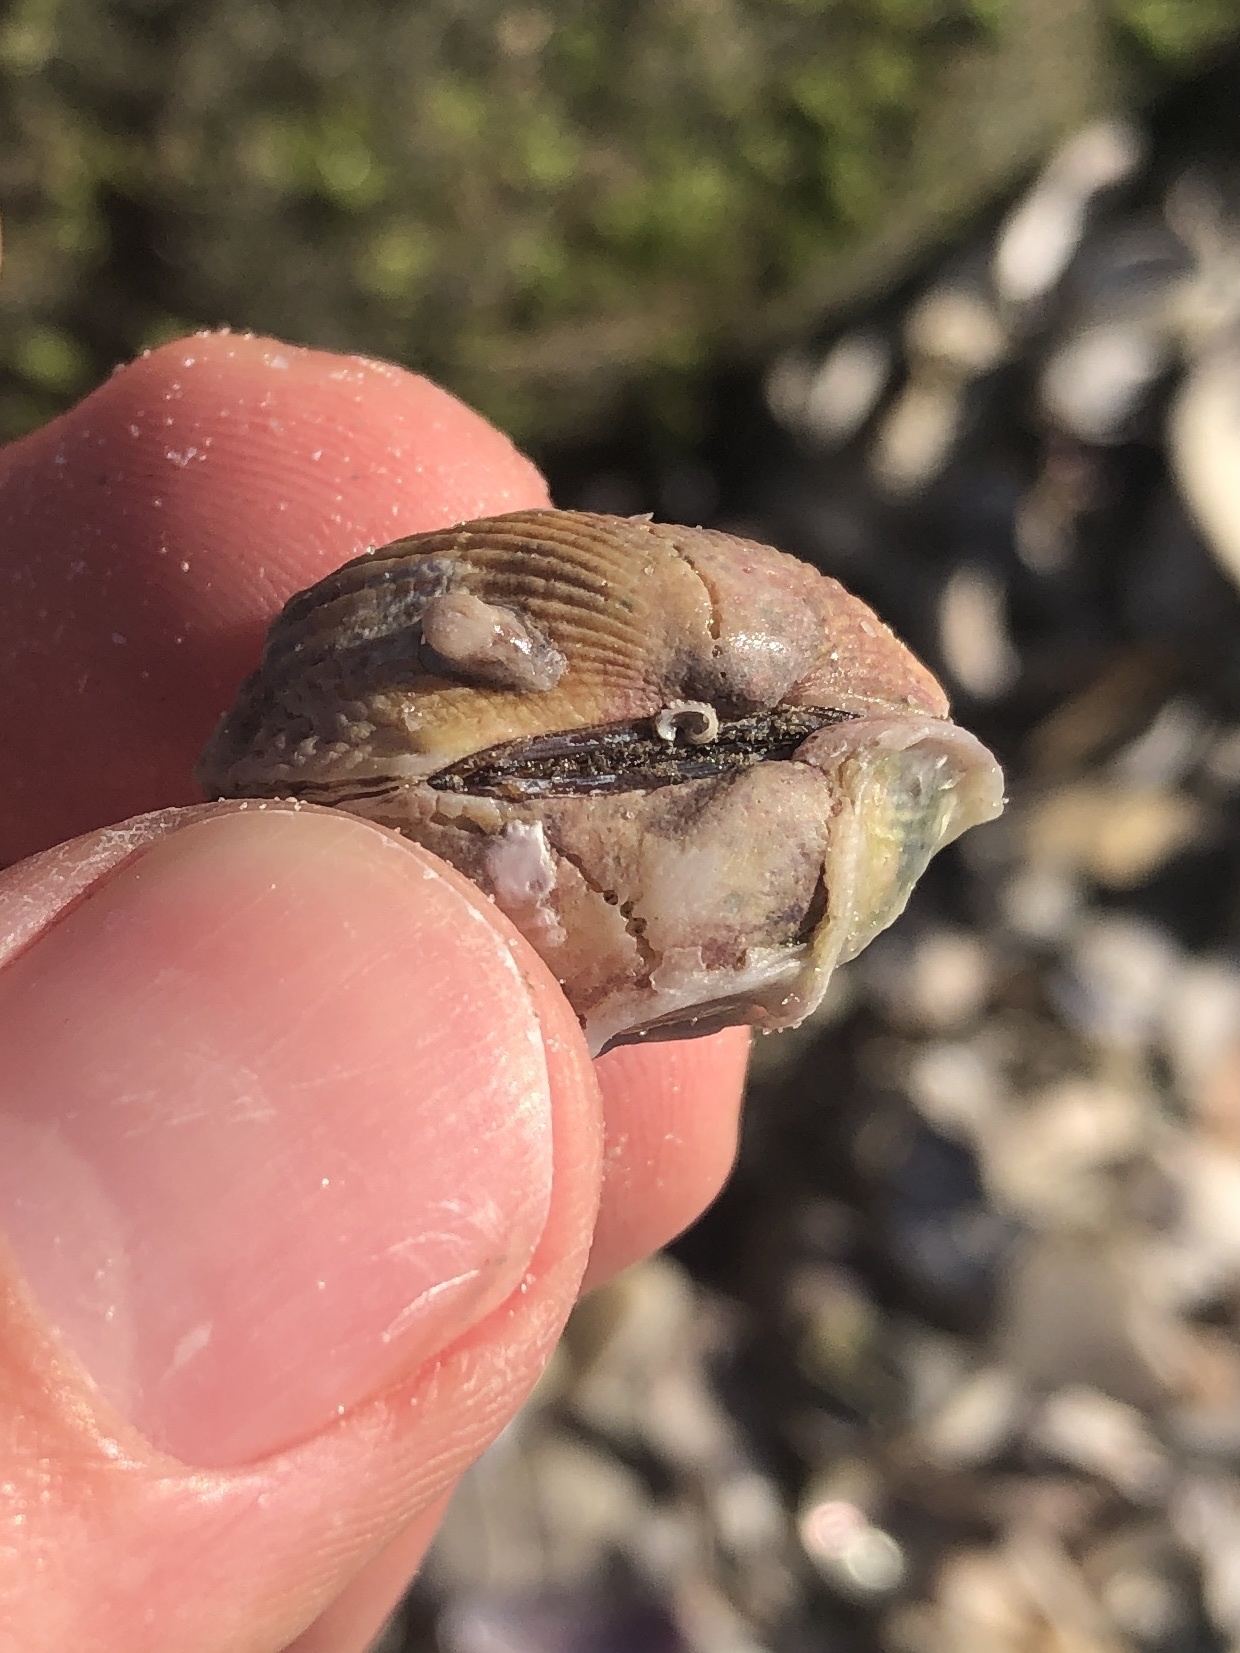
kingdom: Animalia
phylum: Mollusca
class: Bivalvia
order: Arcida
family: Arcidae
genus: Anadara
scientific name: Anadara transversa
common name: Transverse ark
